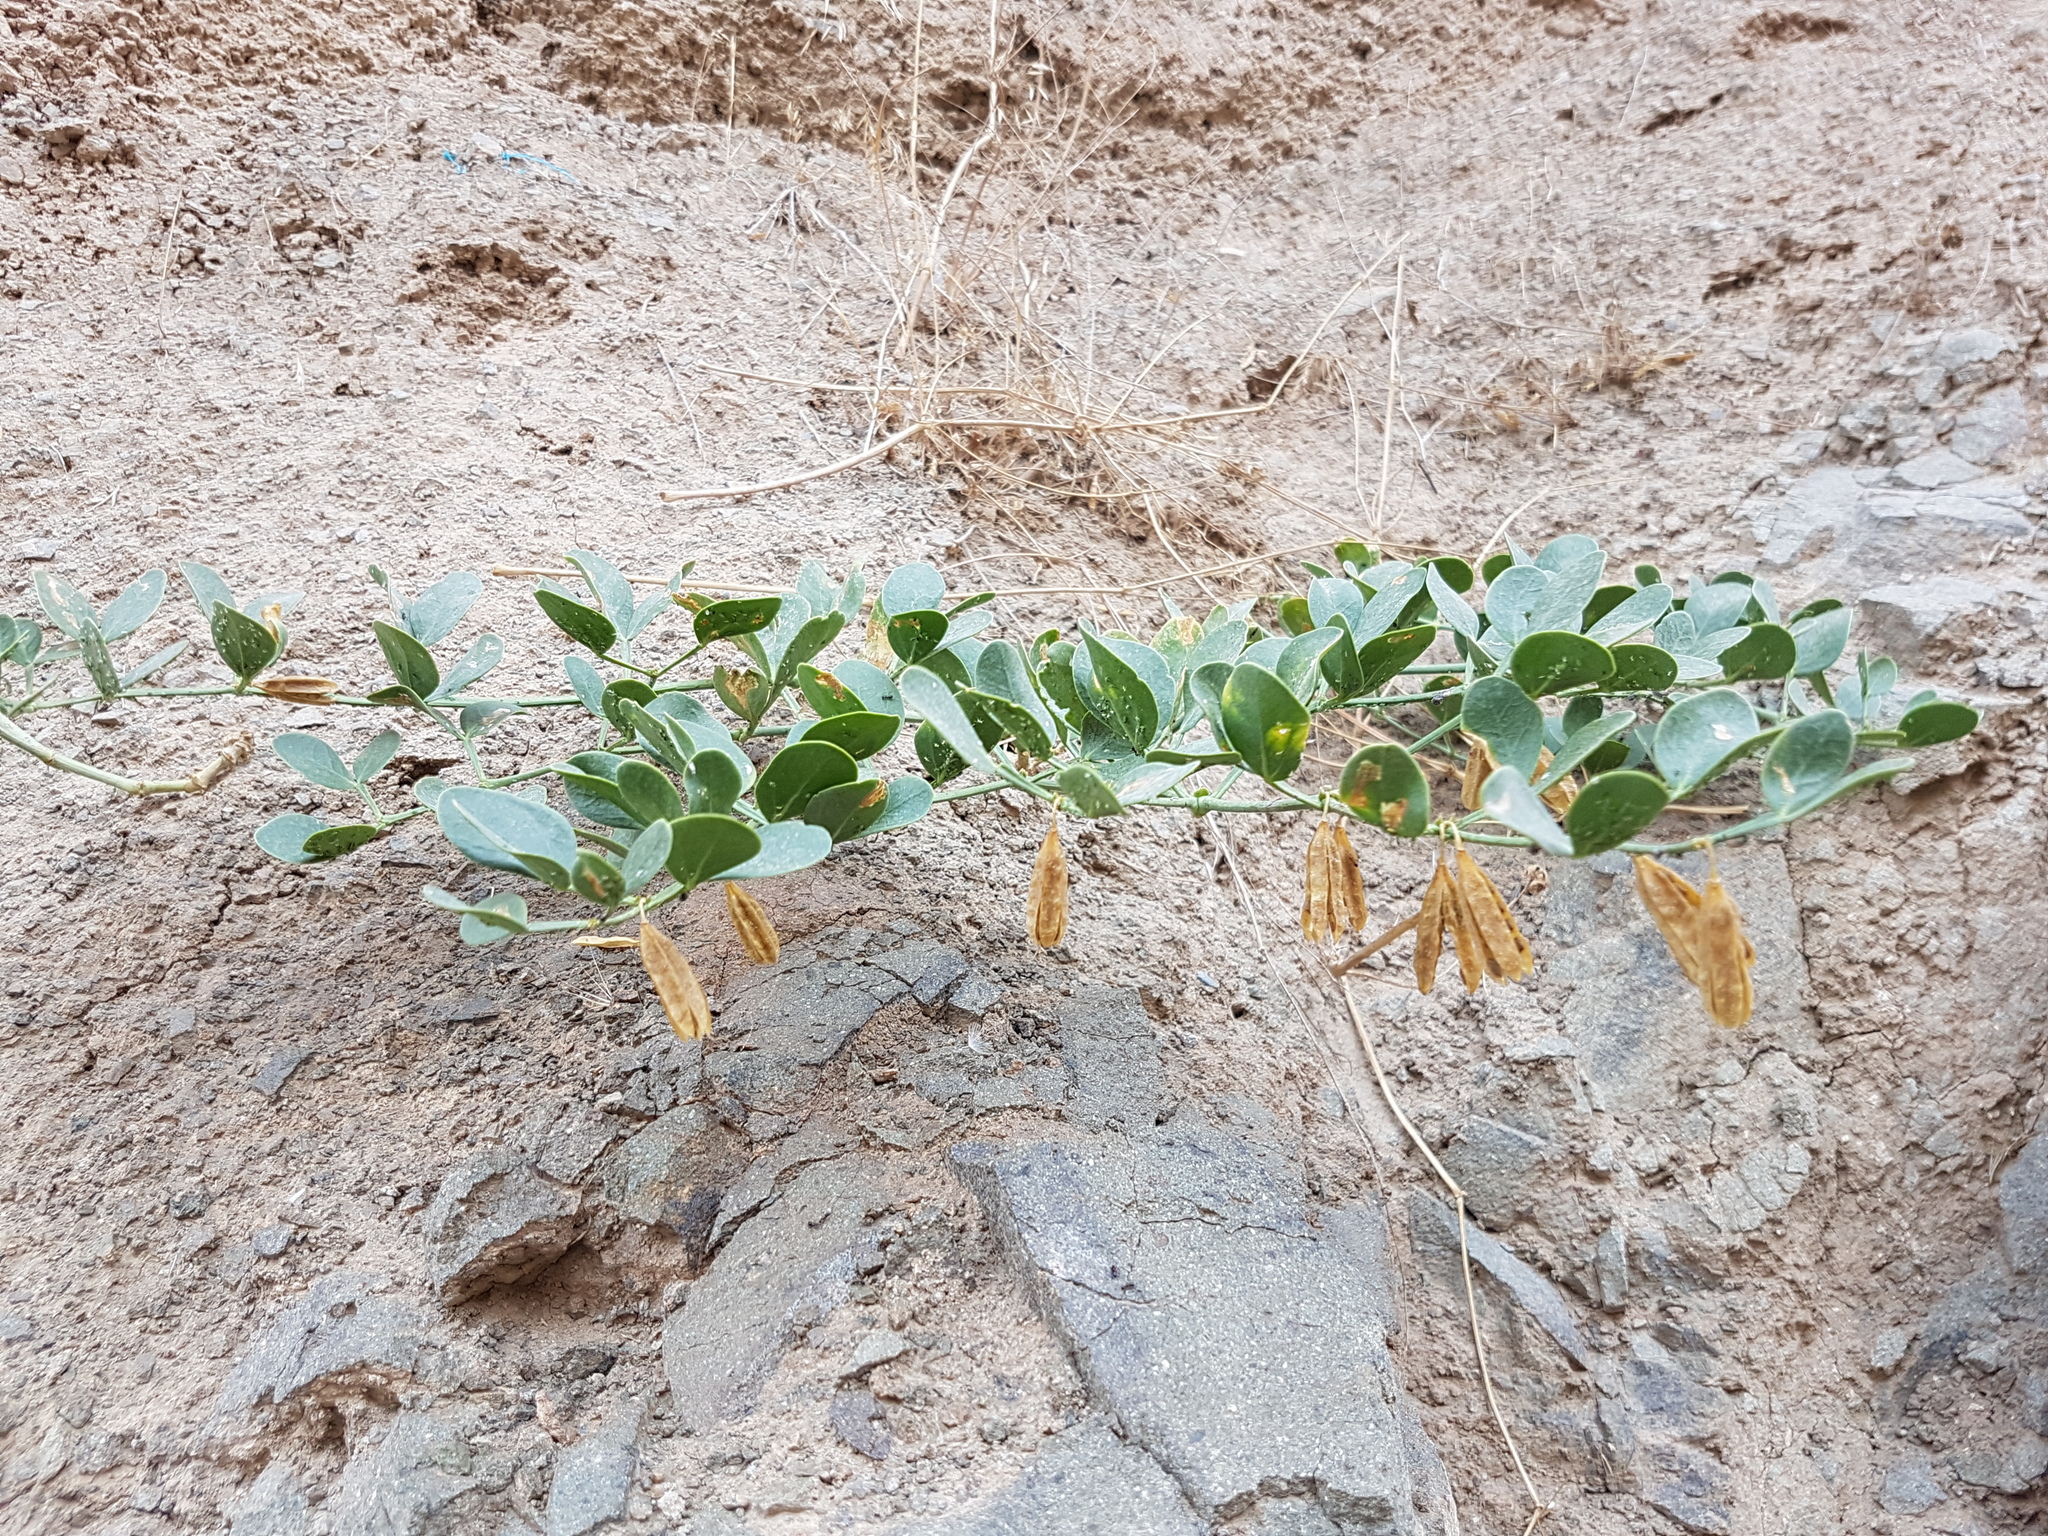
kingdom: Plantae
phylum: Tracheophyta
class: Magnoliopsida
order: Zygophyllales
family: Zygophyllaceae
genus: Zygophyllum
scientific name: Zygophyllum fabago
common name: Syrian beancaper
